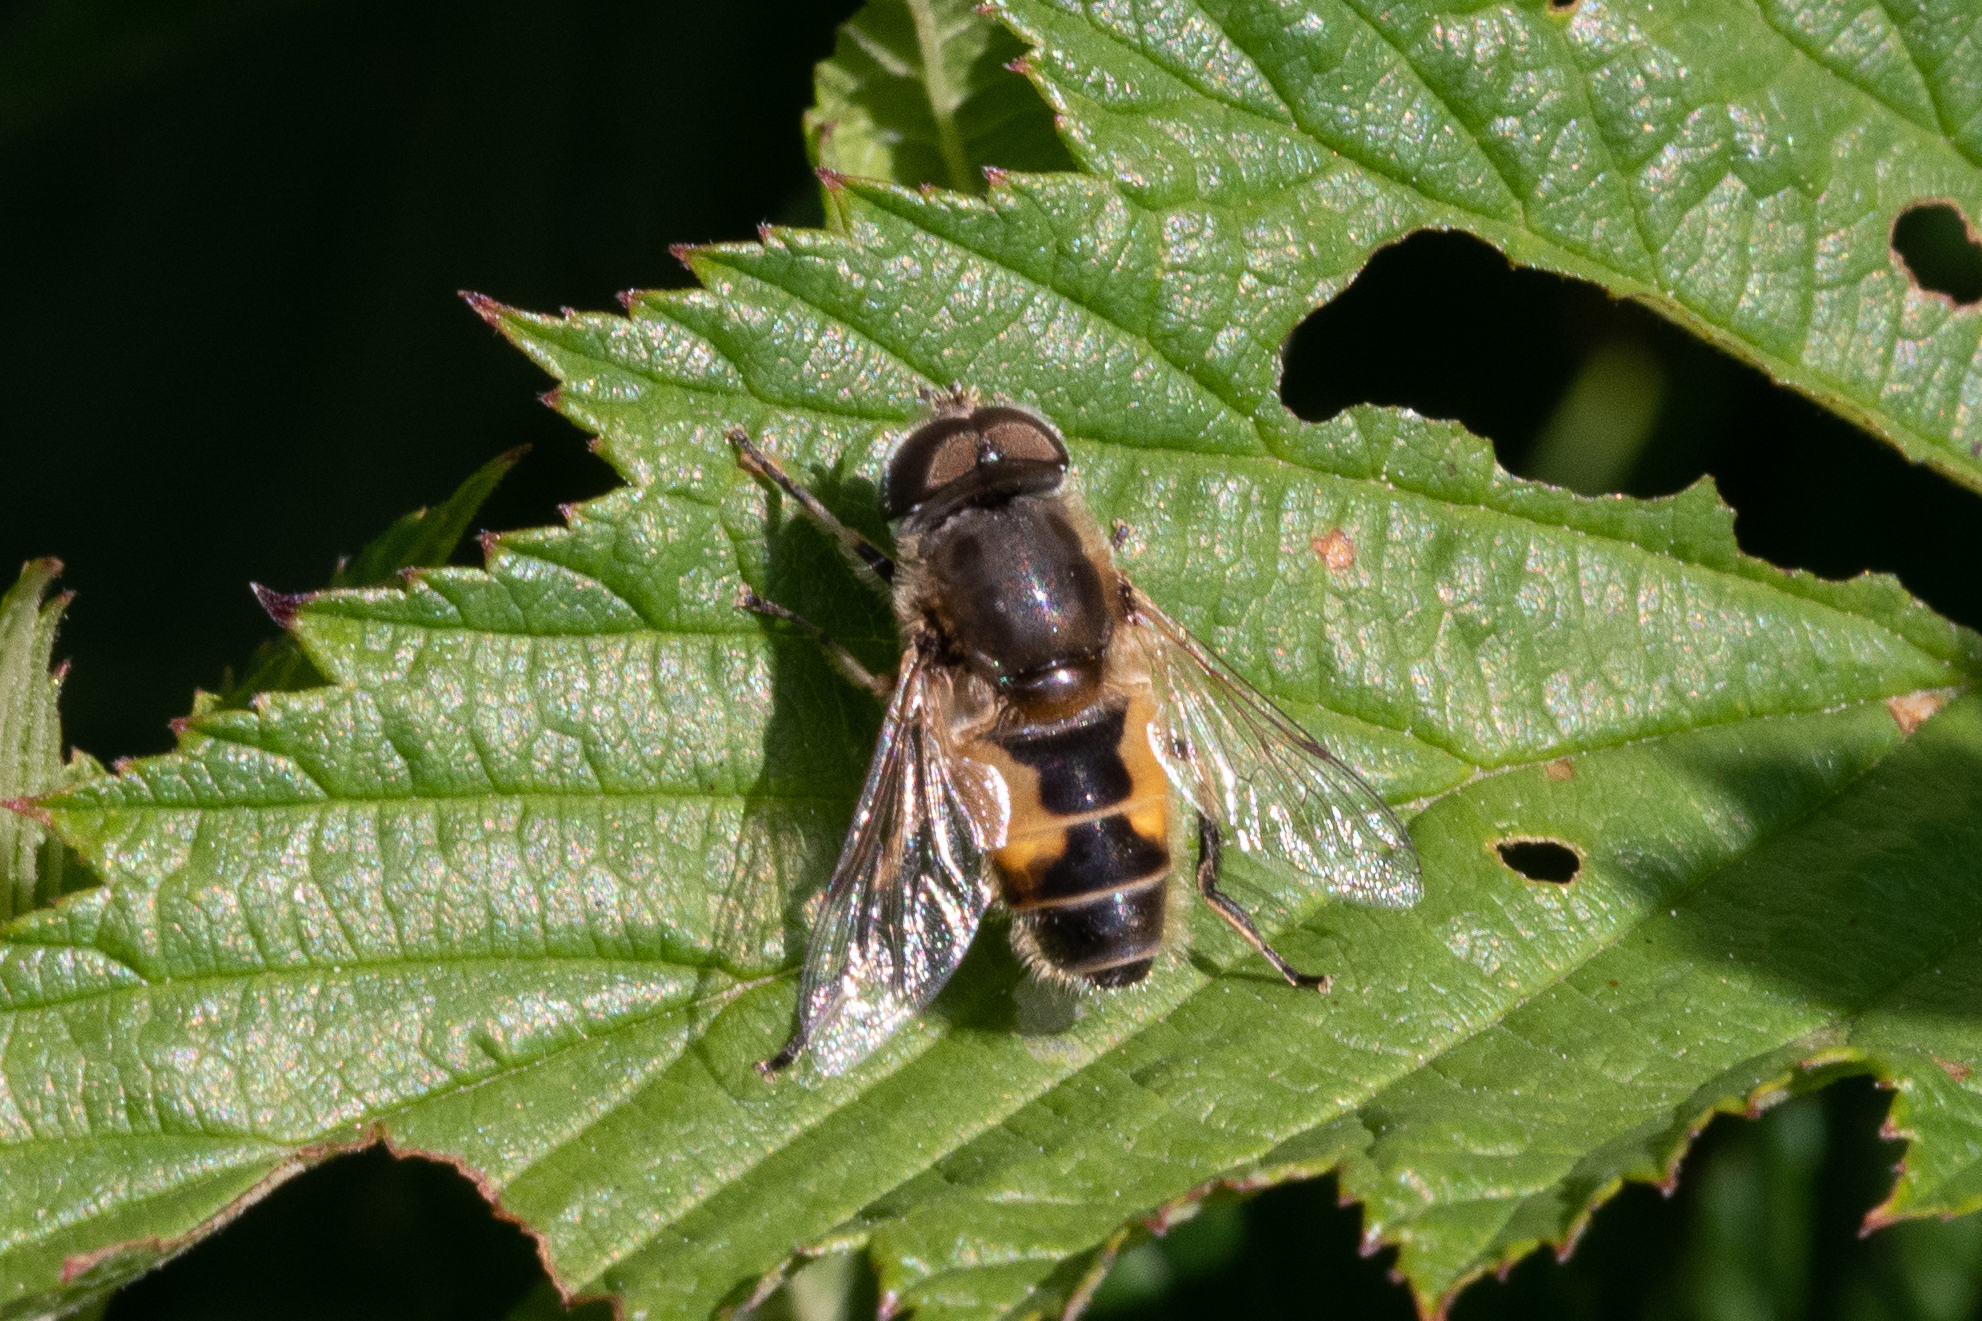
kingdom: Animalia
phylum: Arthropoda
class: Insecta
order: Diptera
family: Syrphidae
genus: Eristalis
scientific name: Eristalis arbustorum
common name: Hover fly
